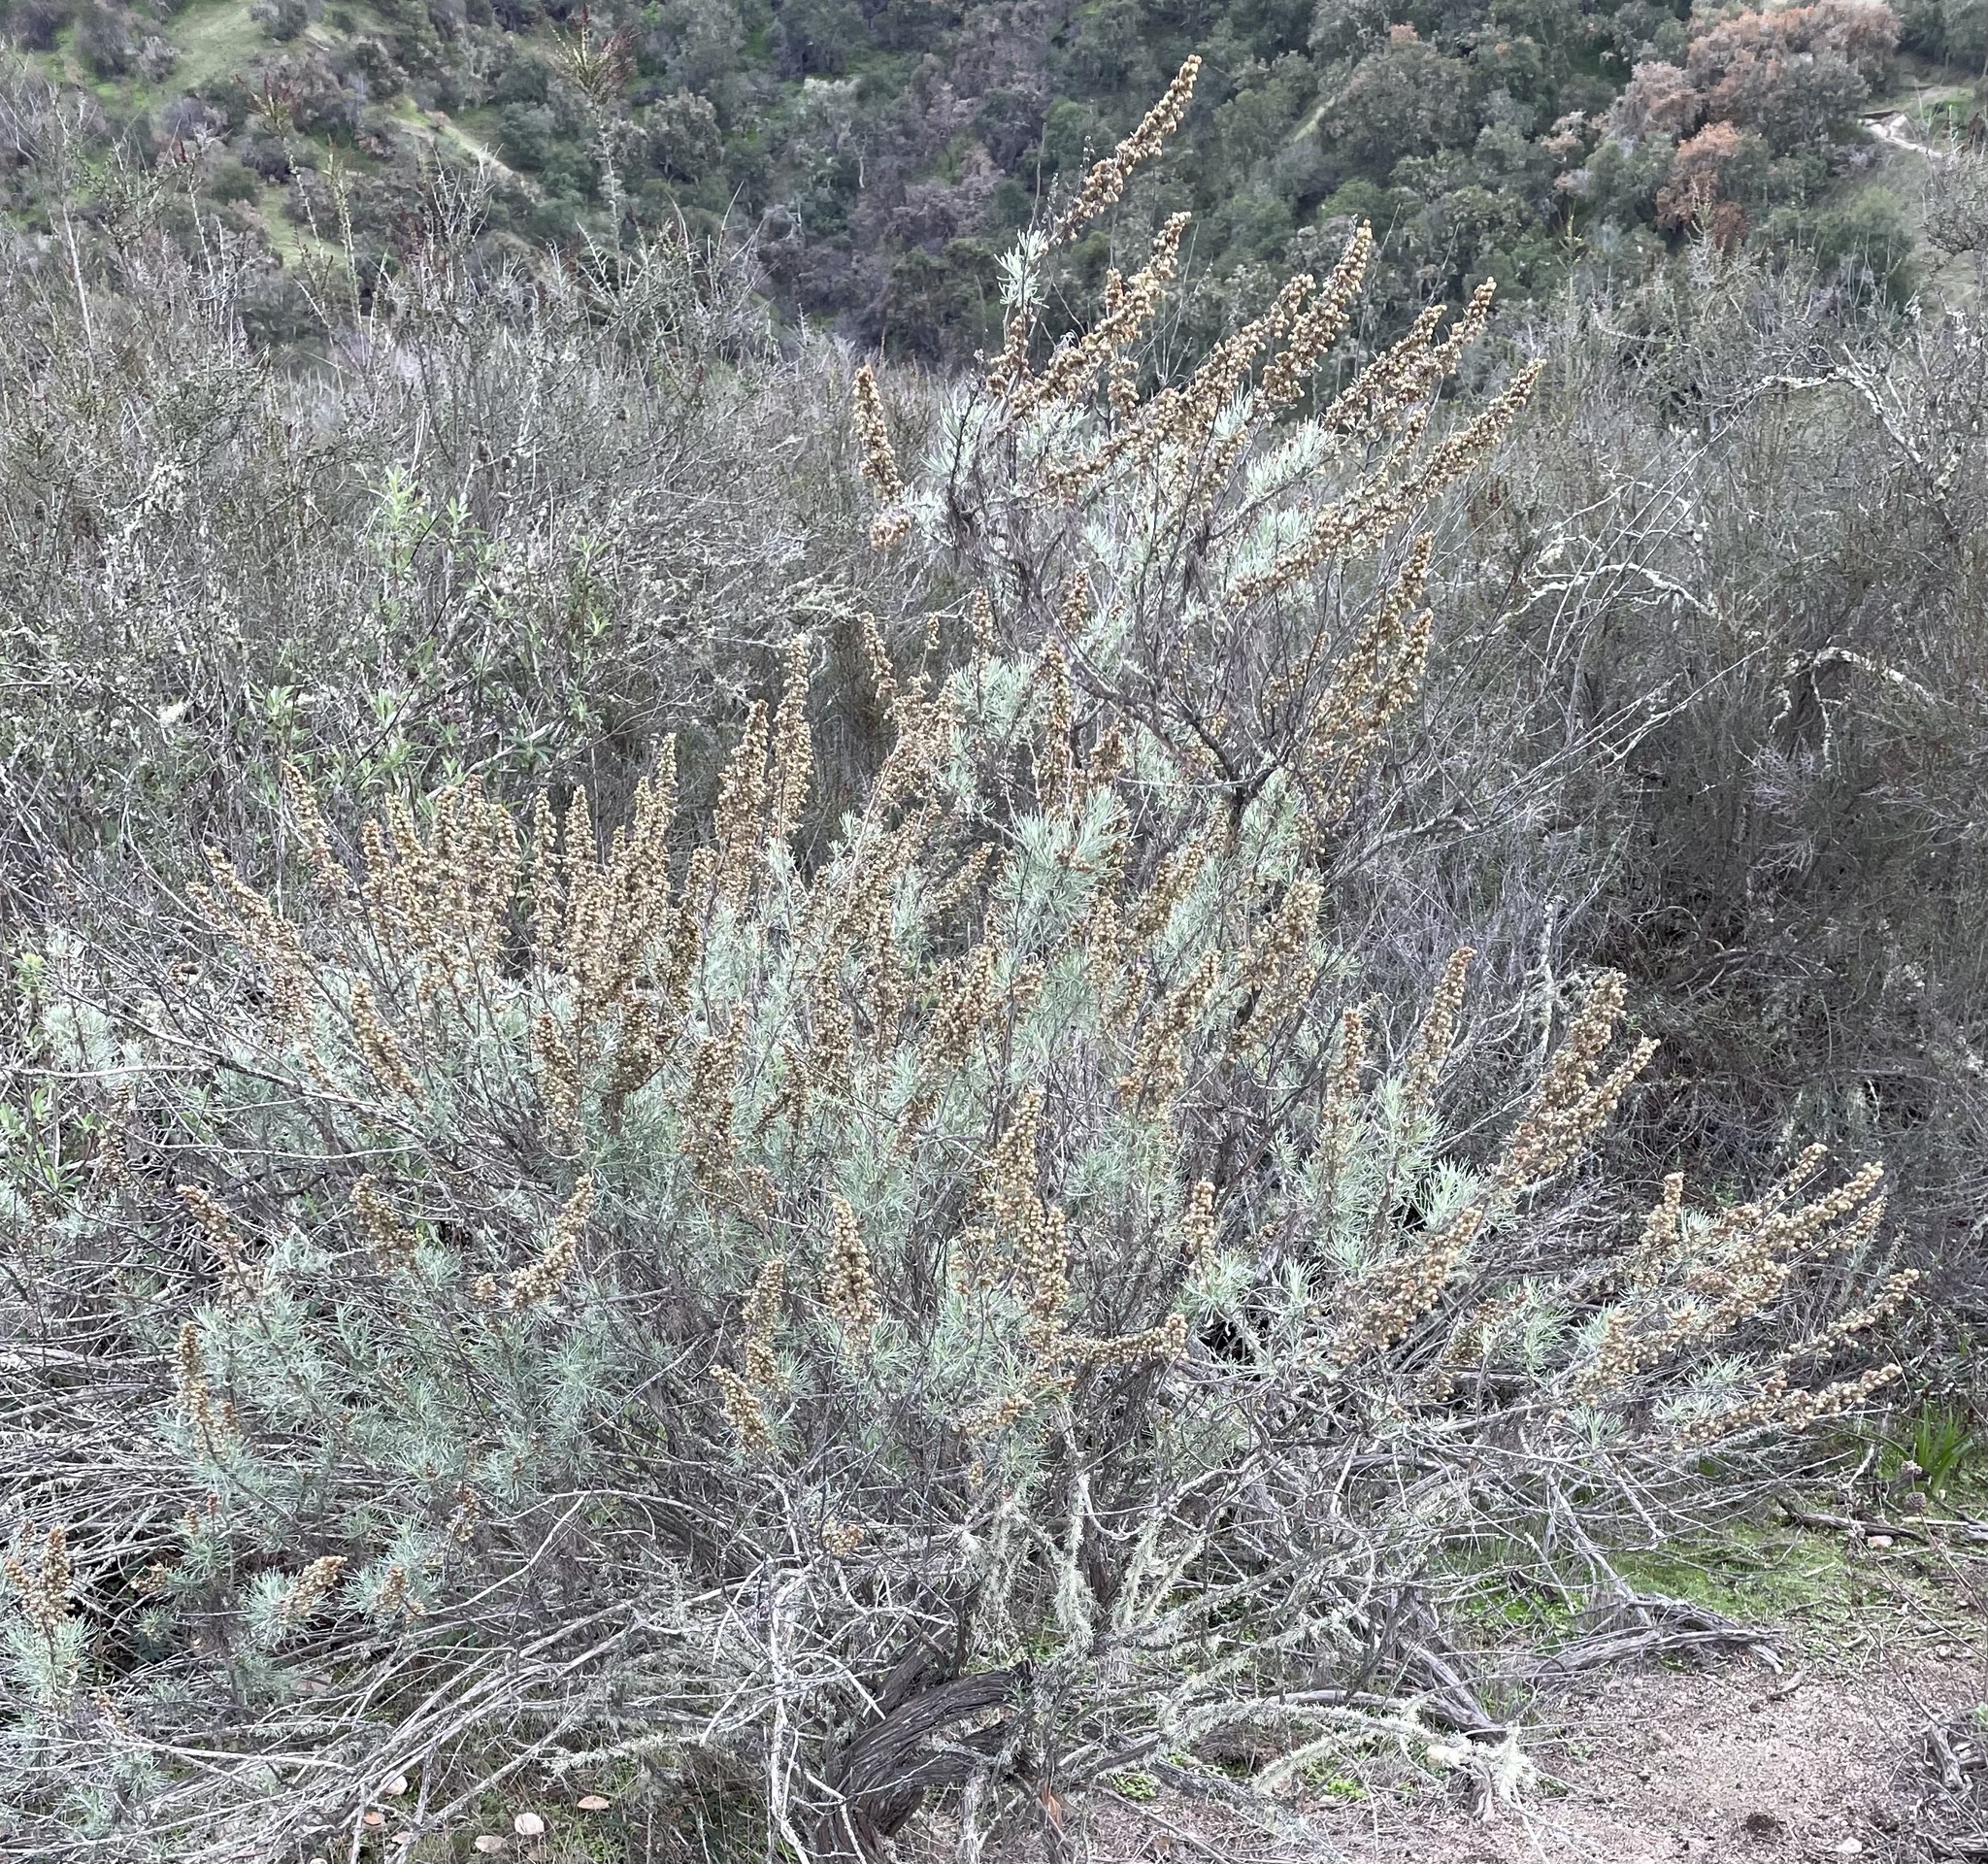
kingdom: Plantae
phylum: Tracheophyta
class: Magnoliopsida
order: Asterales
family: Asteraceae
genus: Artemisia
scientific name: Artemisia californica
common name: California sagebrush
